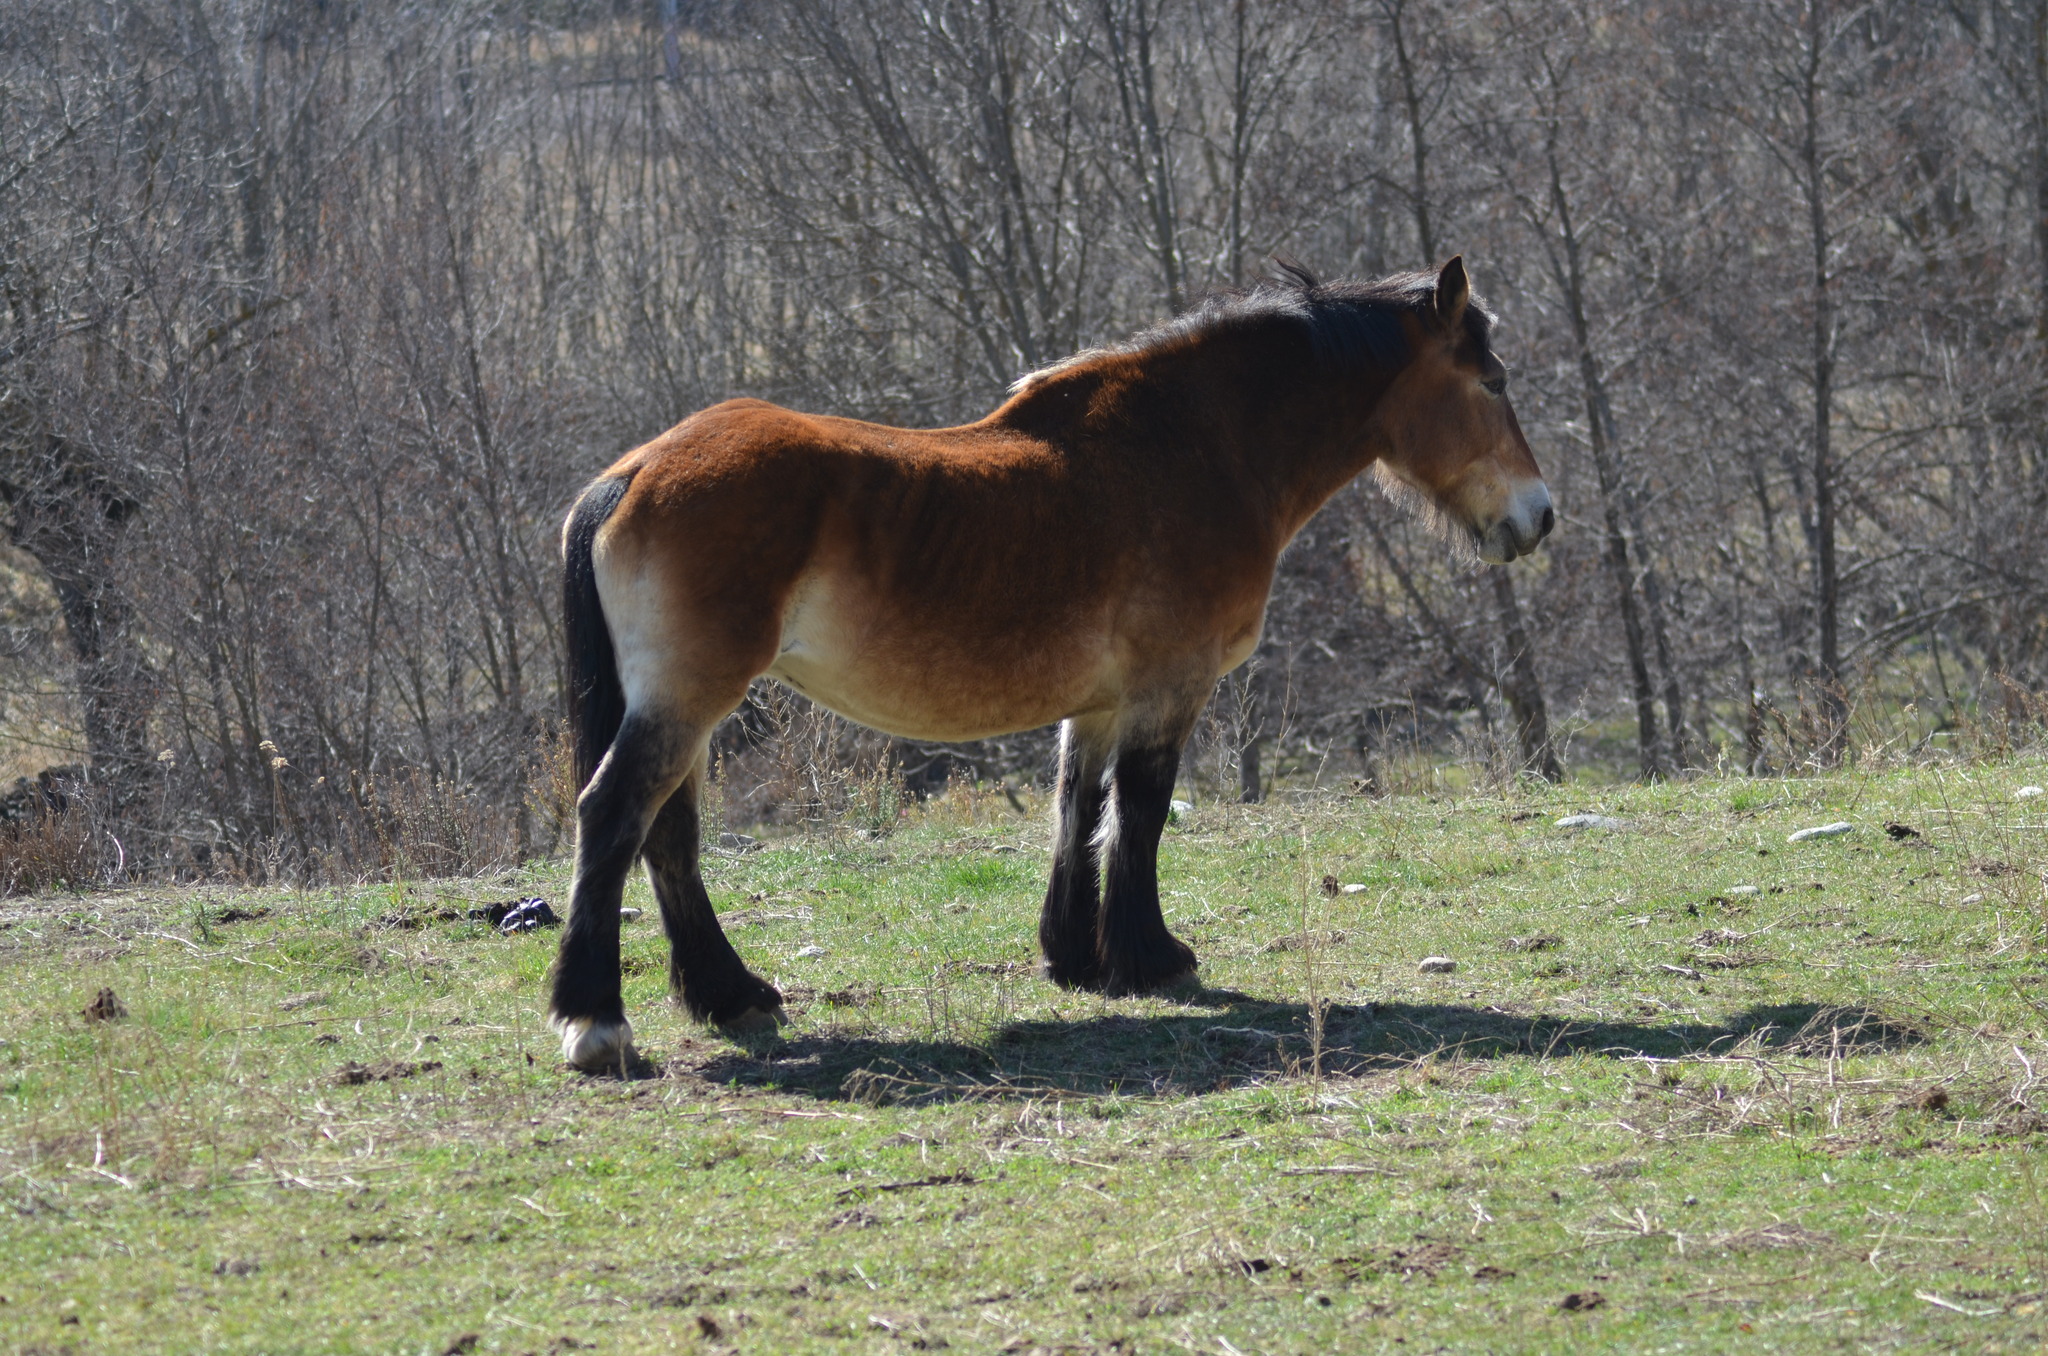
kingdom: Animalia
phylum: Chordata
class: Mammalia
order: Perissodactyla
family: Equidae
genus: Equus
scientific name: Equus caballus
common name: Horse
